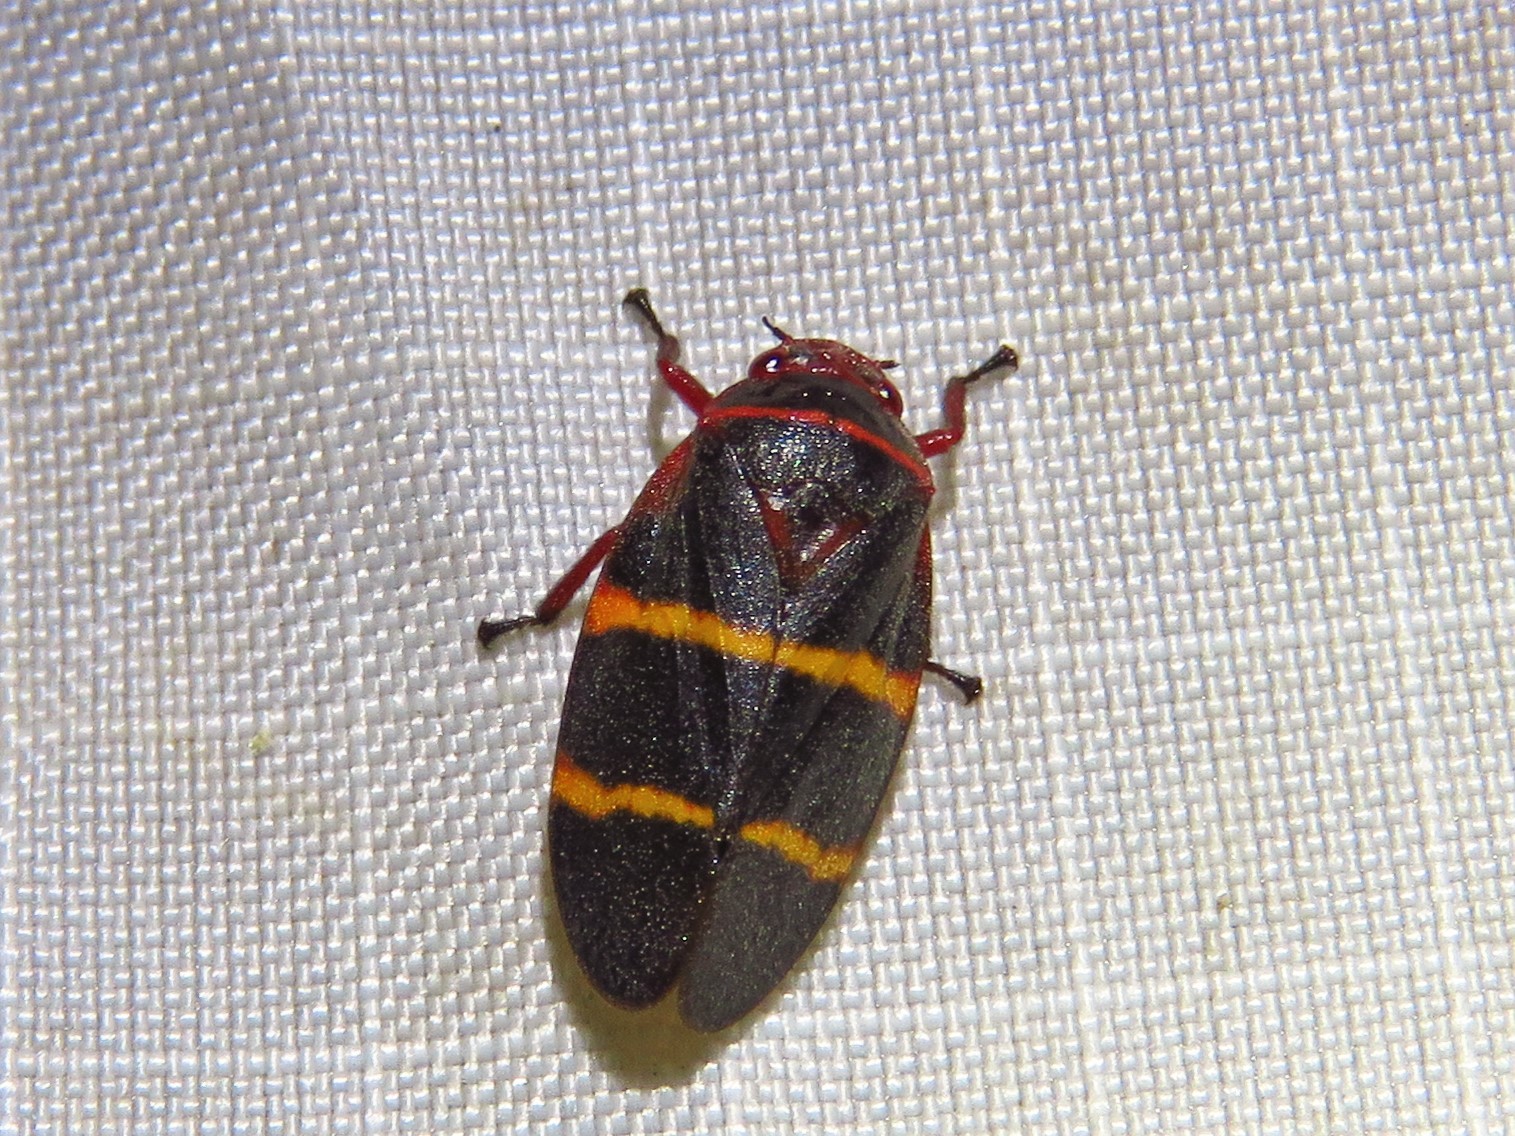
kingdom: Animalia
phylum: Arthropoda
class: Insecta
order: Hemiptera
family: Cercopidae
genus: Prosapia
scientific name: Prosapia bicincta
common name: Twolined spittlebug
